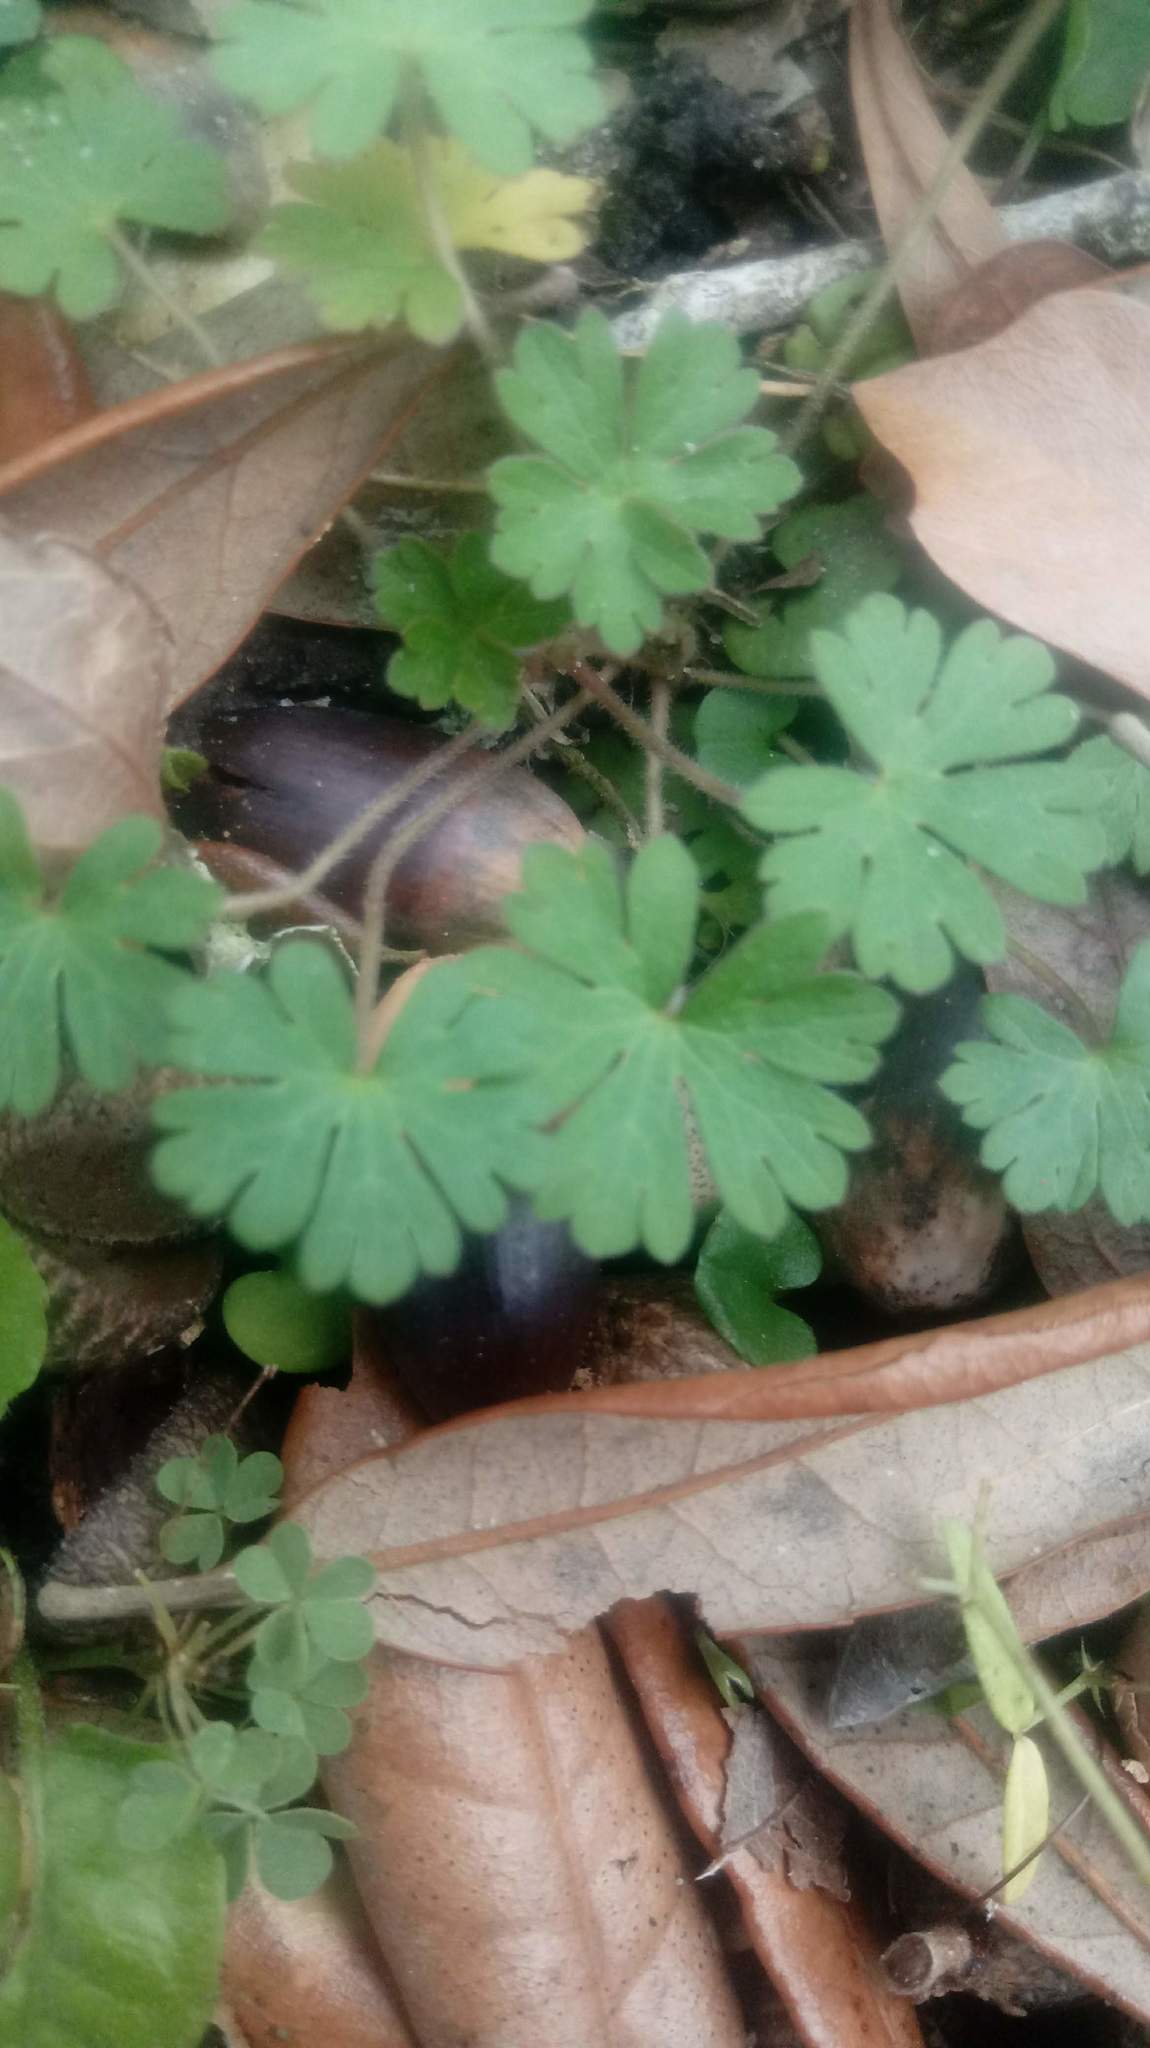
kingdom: Plantae
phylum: Tracheophyta
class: Magnoliopsida
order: Geraniales
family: Geraniaceae
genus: Geranium
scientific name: Geranium carolinianum
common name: Carolina crane's-bill
